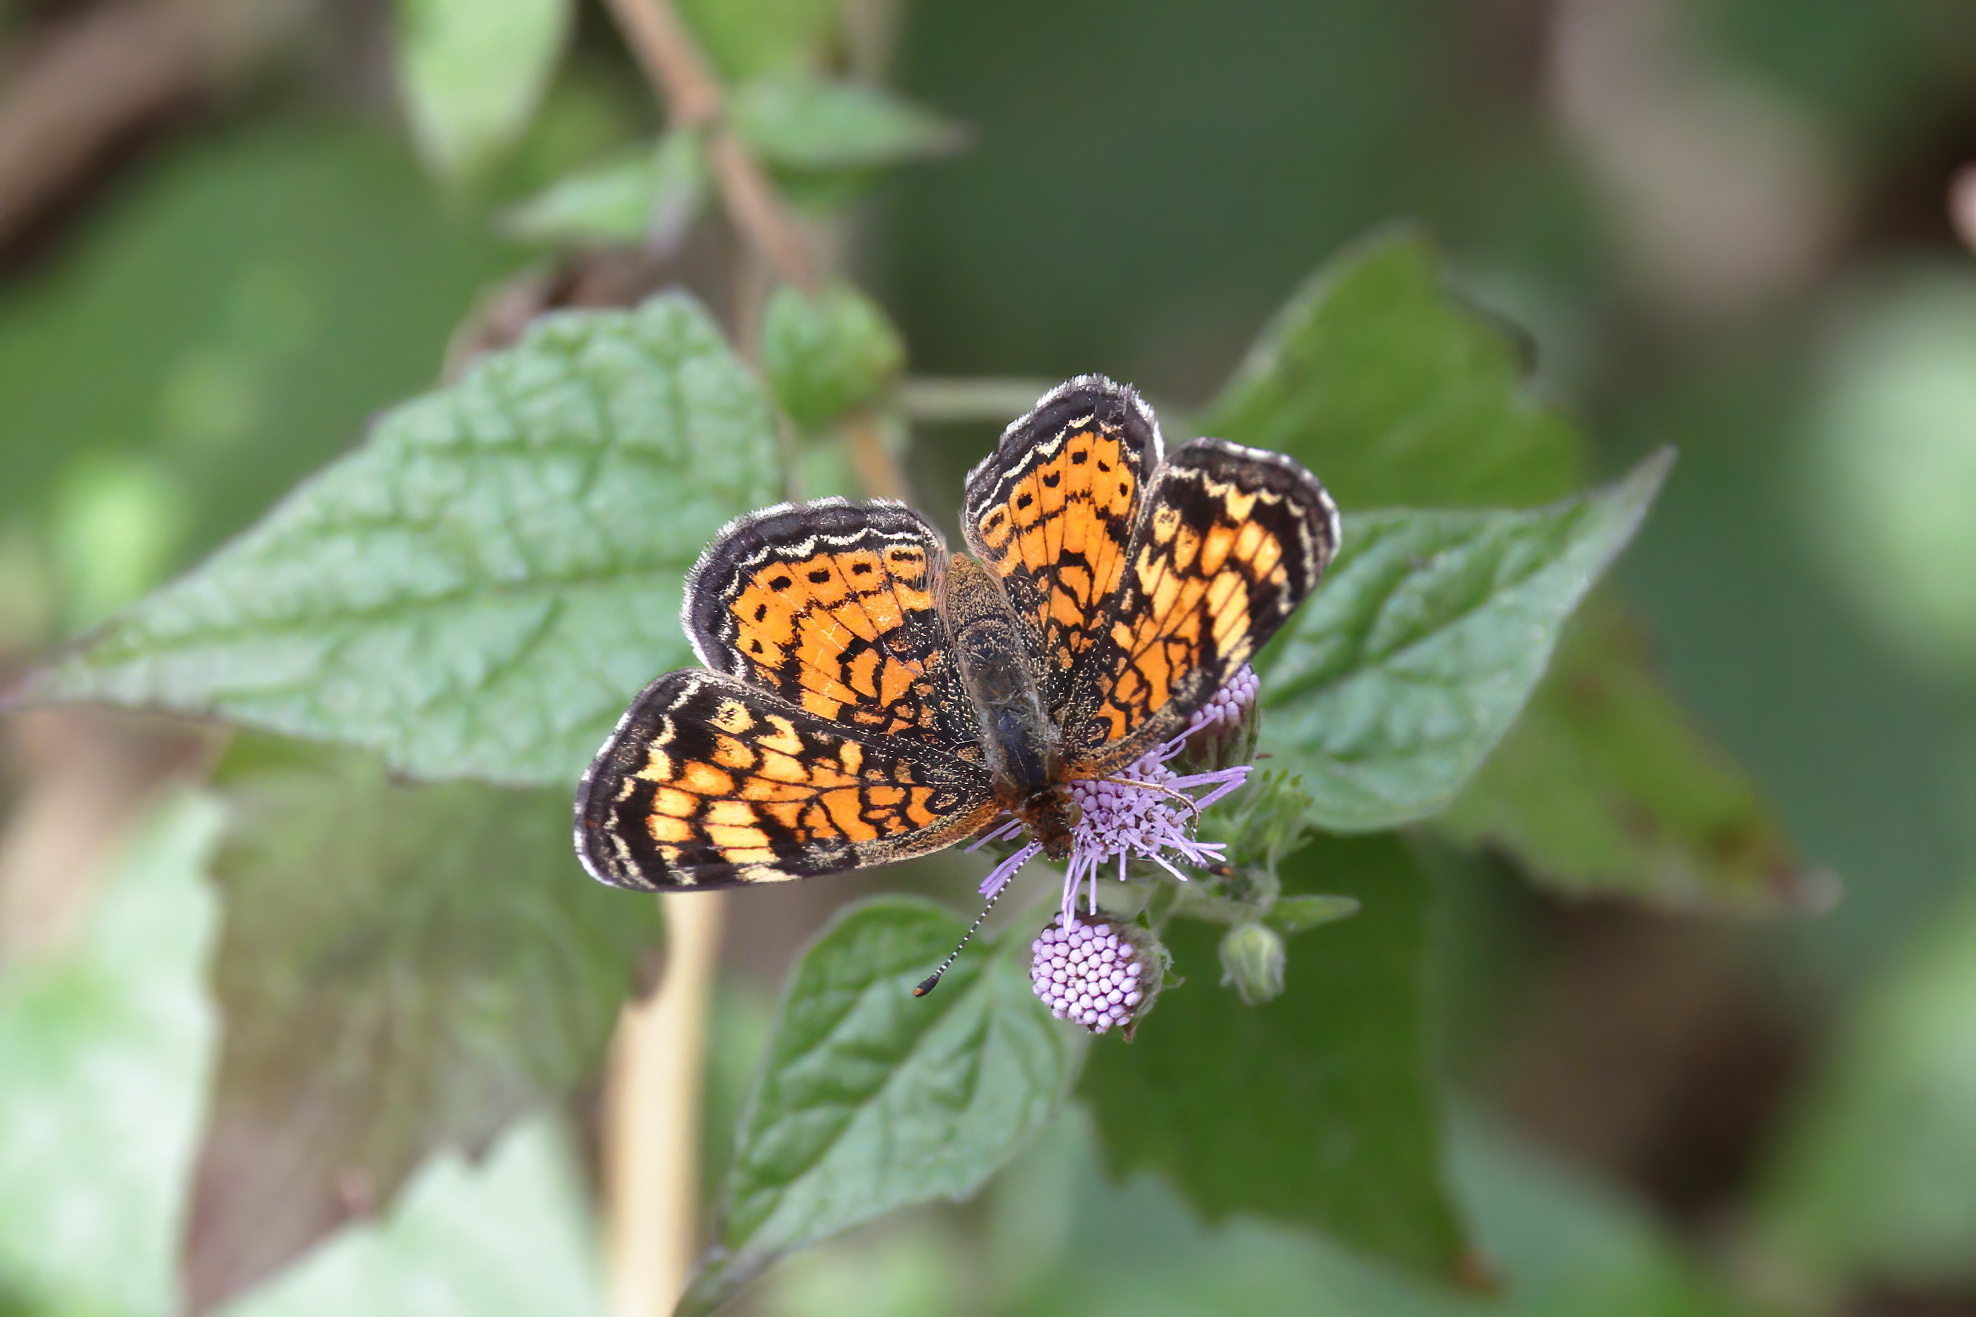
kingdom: Animalia
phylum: Arthropoda
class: Insecta
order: Lepidoptera
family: Nymphalidae
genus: Phyciodes
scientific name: Phyciodes tharos
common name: Pearl crescent
